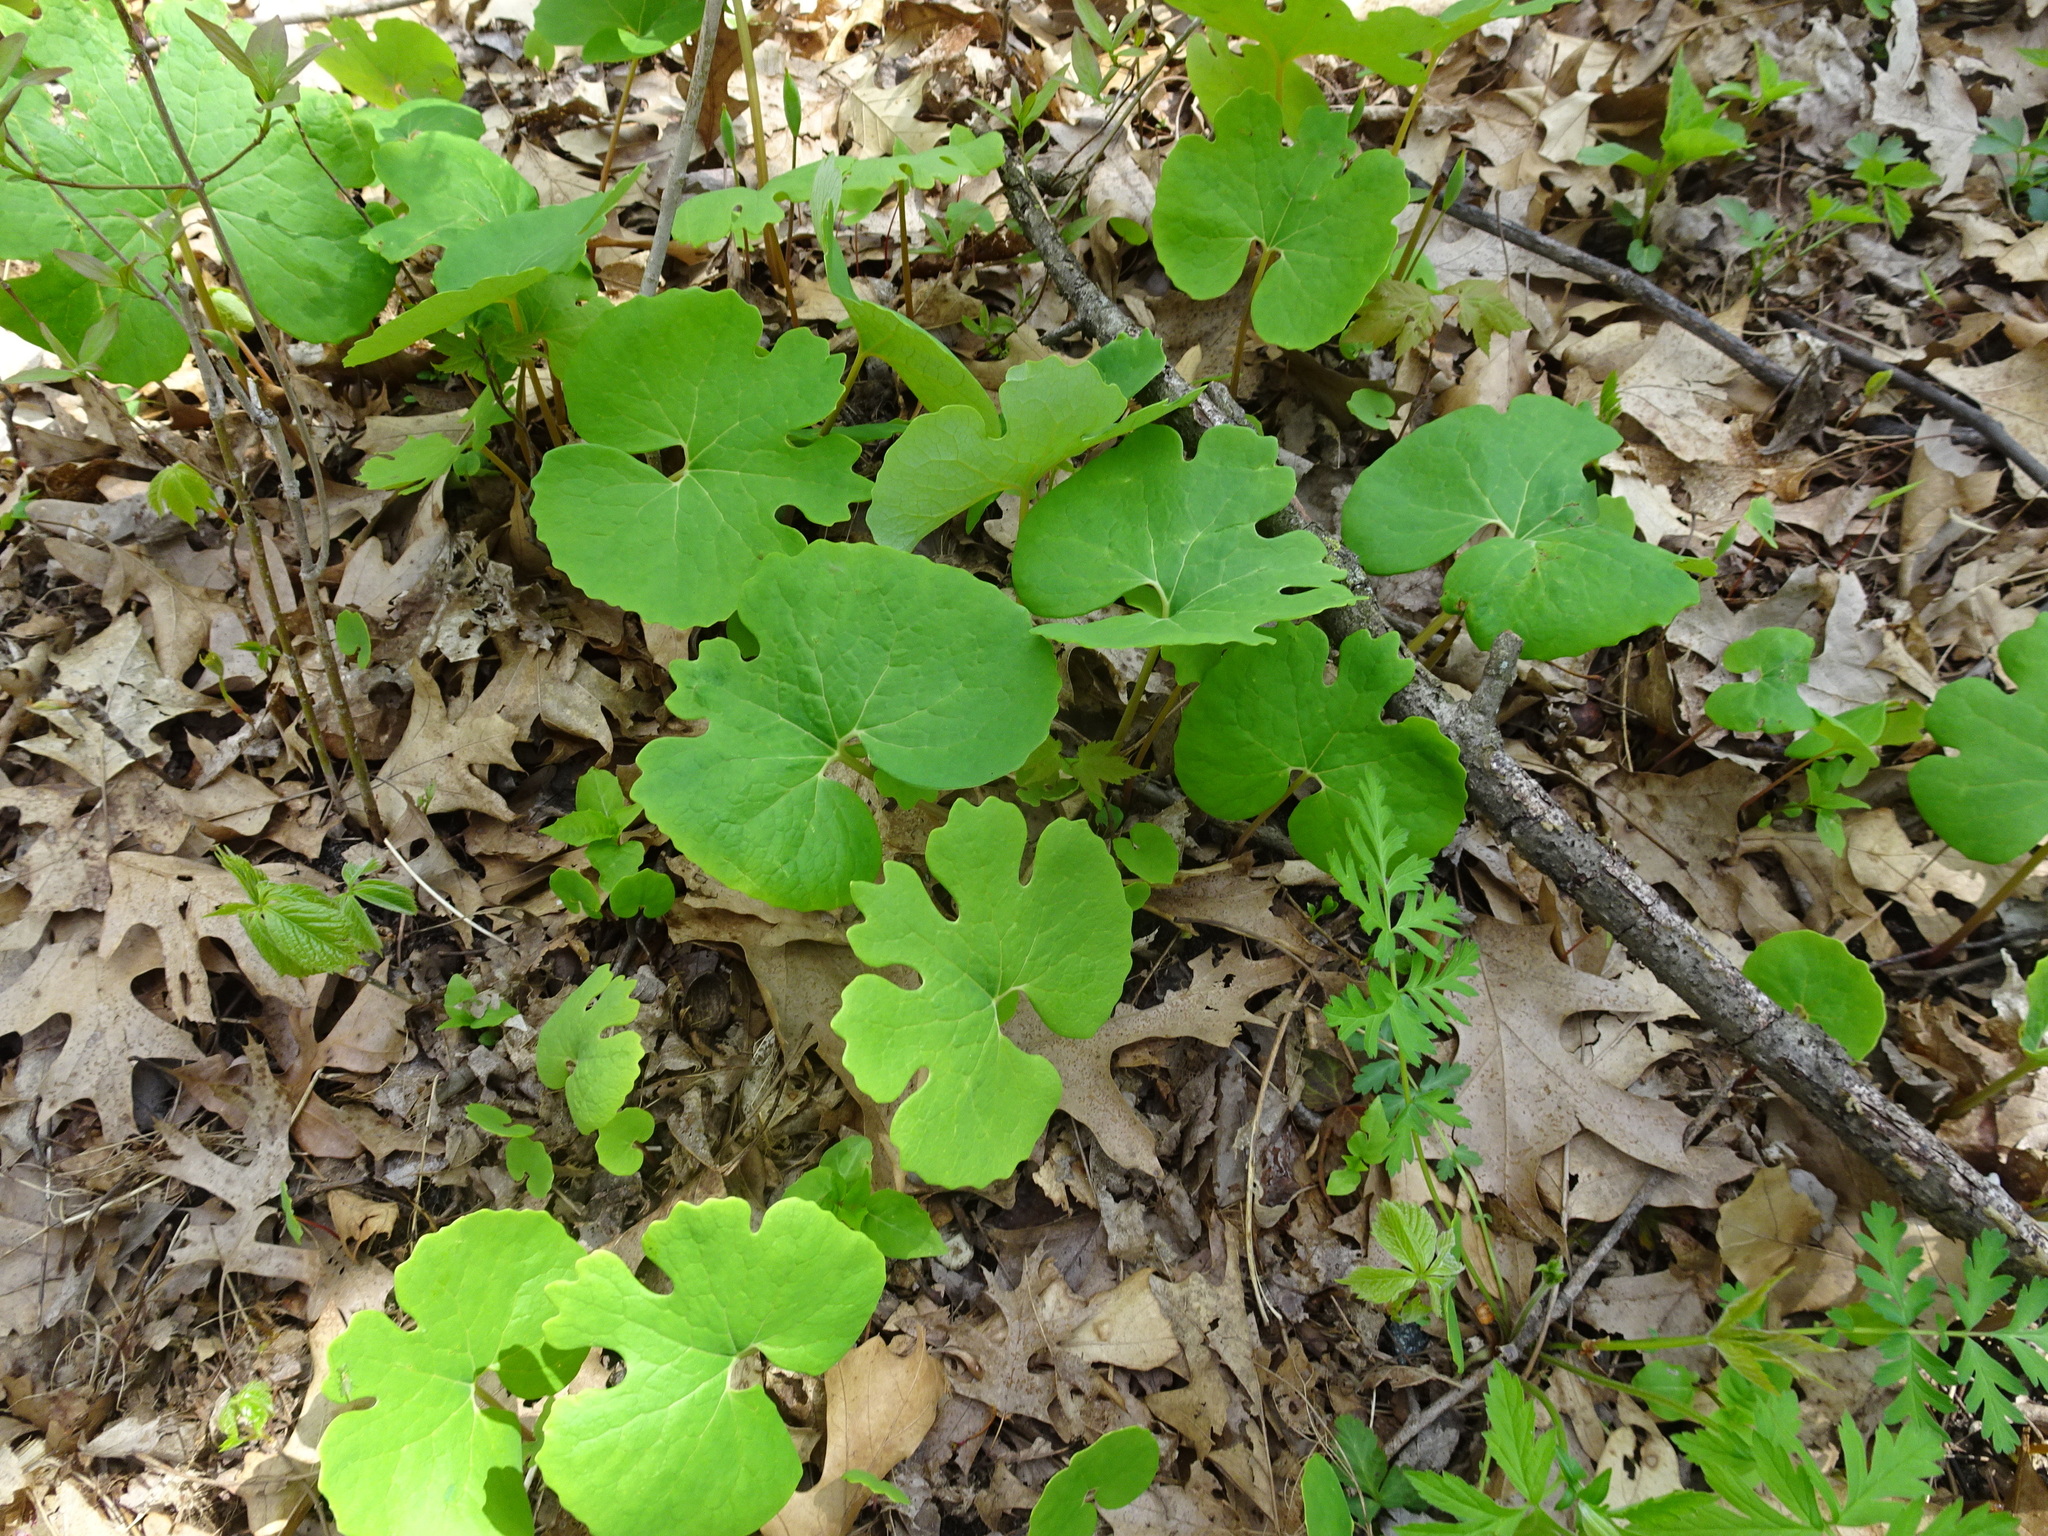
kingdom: Plantae
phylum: Tracheophyta
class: Magnoliopsida
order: Ranunculales
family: Papaveraceae
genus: Sanguinaria
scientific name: Sanguinaria canadensis
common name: Bloodroot
